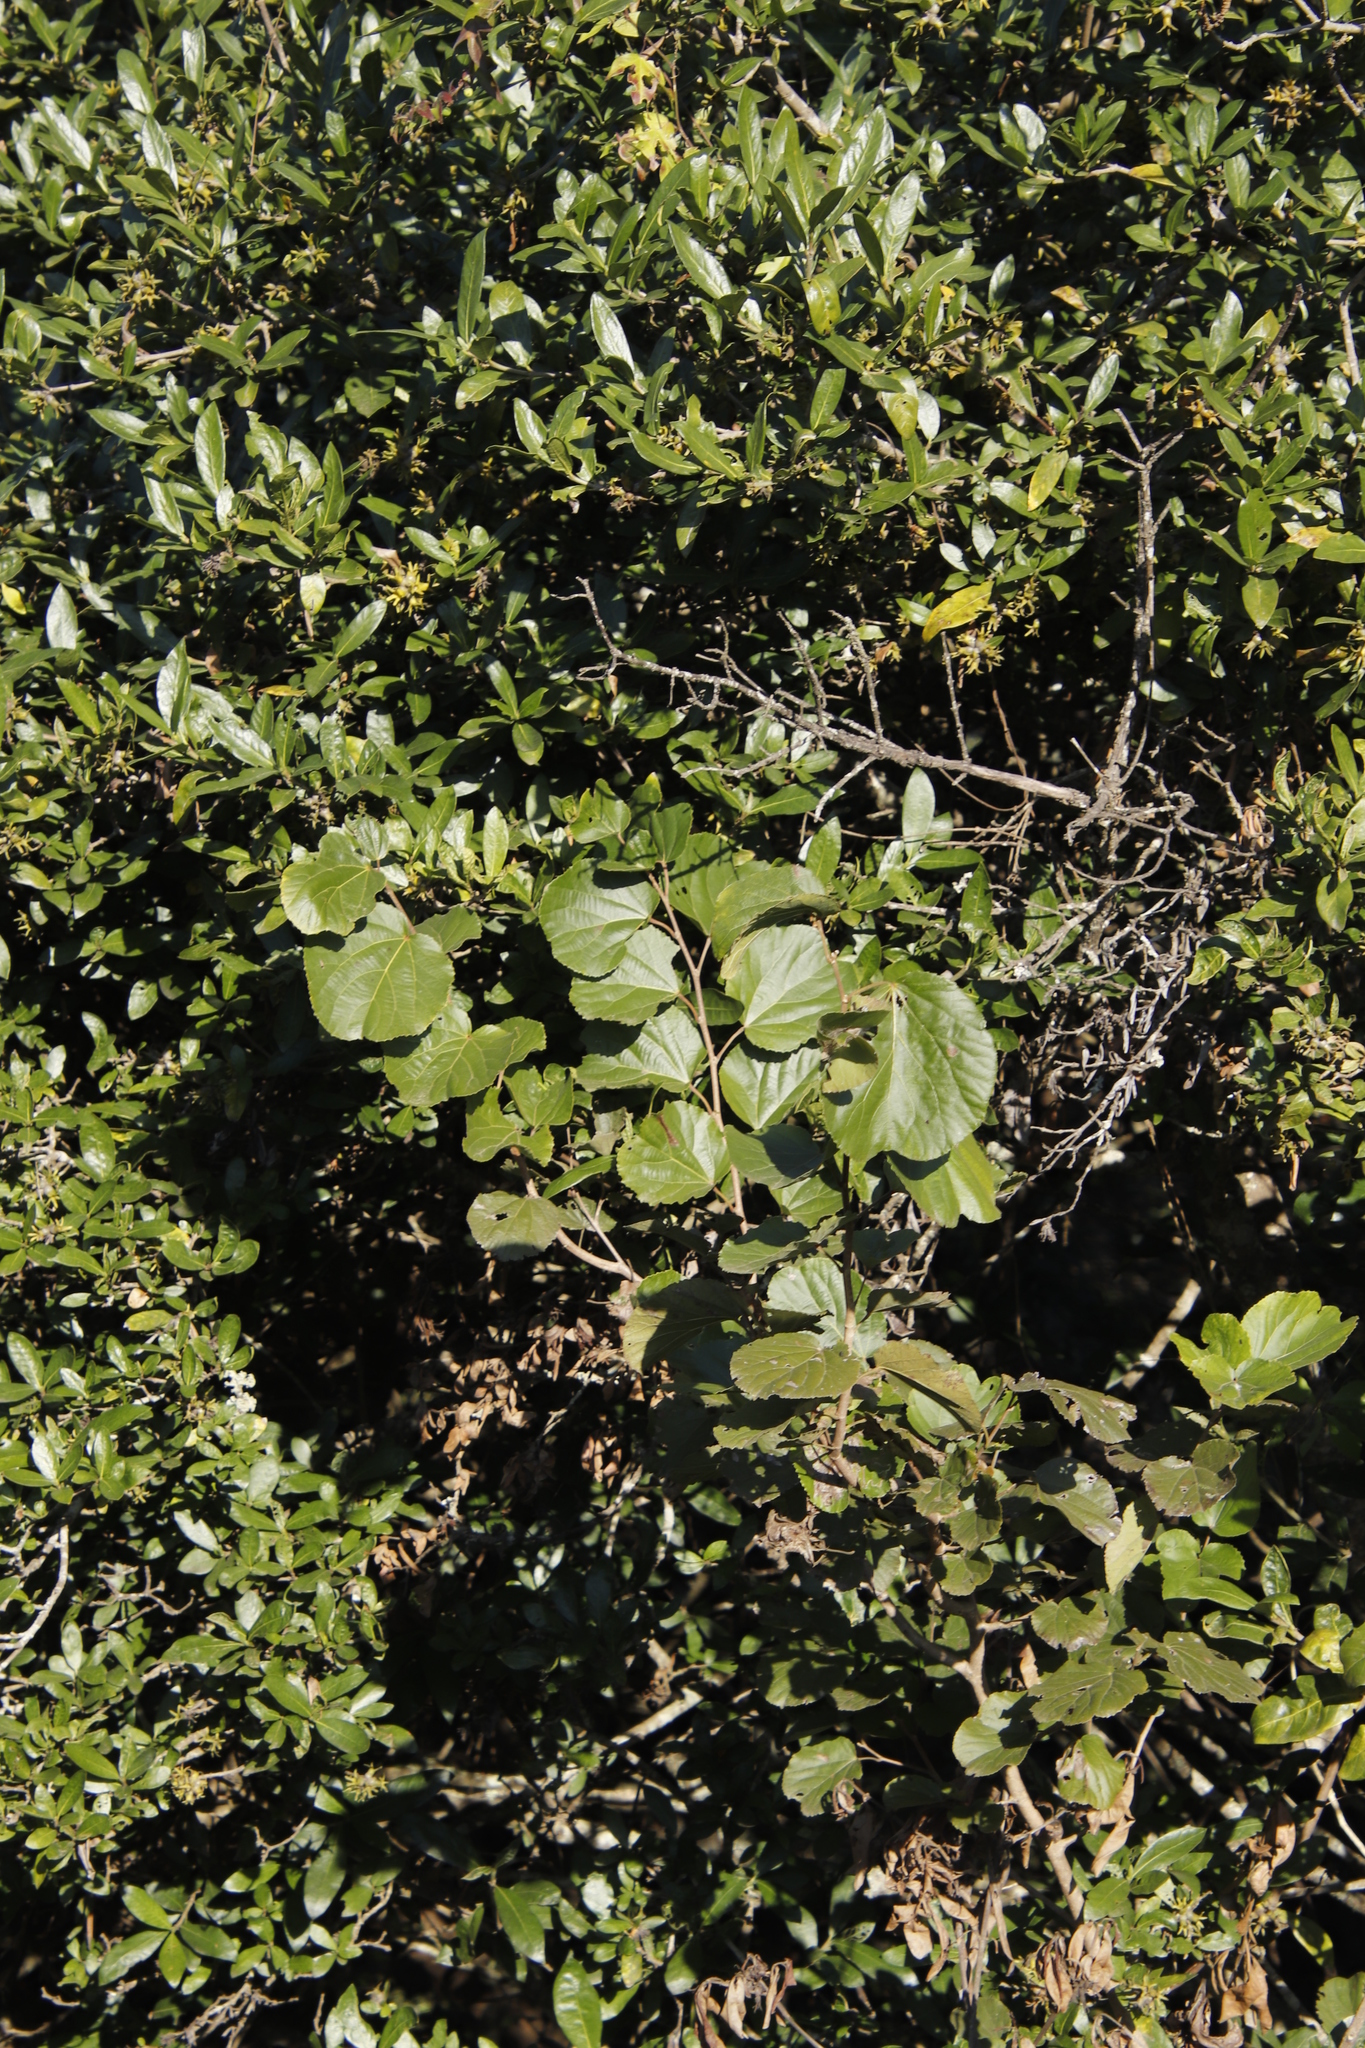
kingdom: Plantae
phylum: Tracheophyta
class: Magnoliopsida
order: Malpighiales
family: Salicaceae
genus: Trimeria
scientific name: Trimeria grandifolia
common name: Wild mulberry
